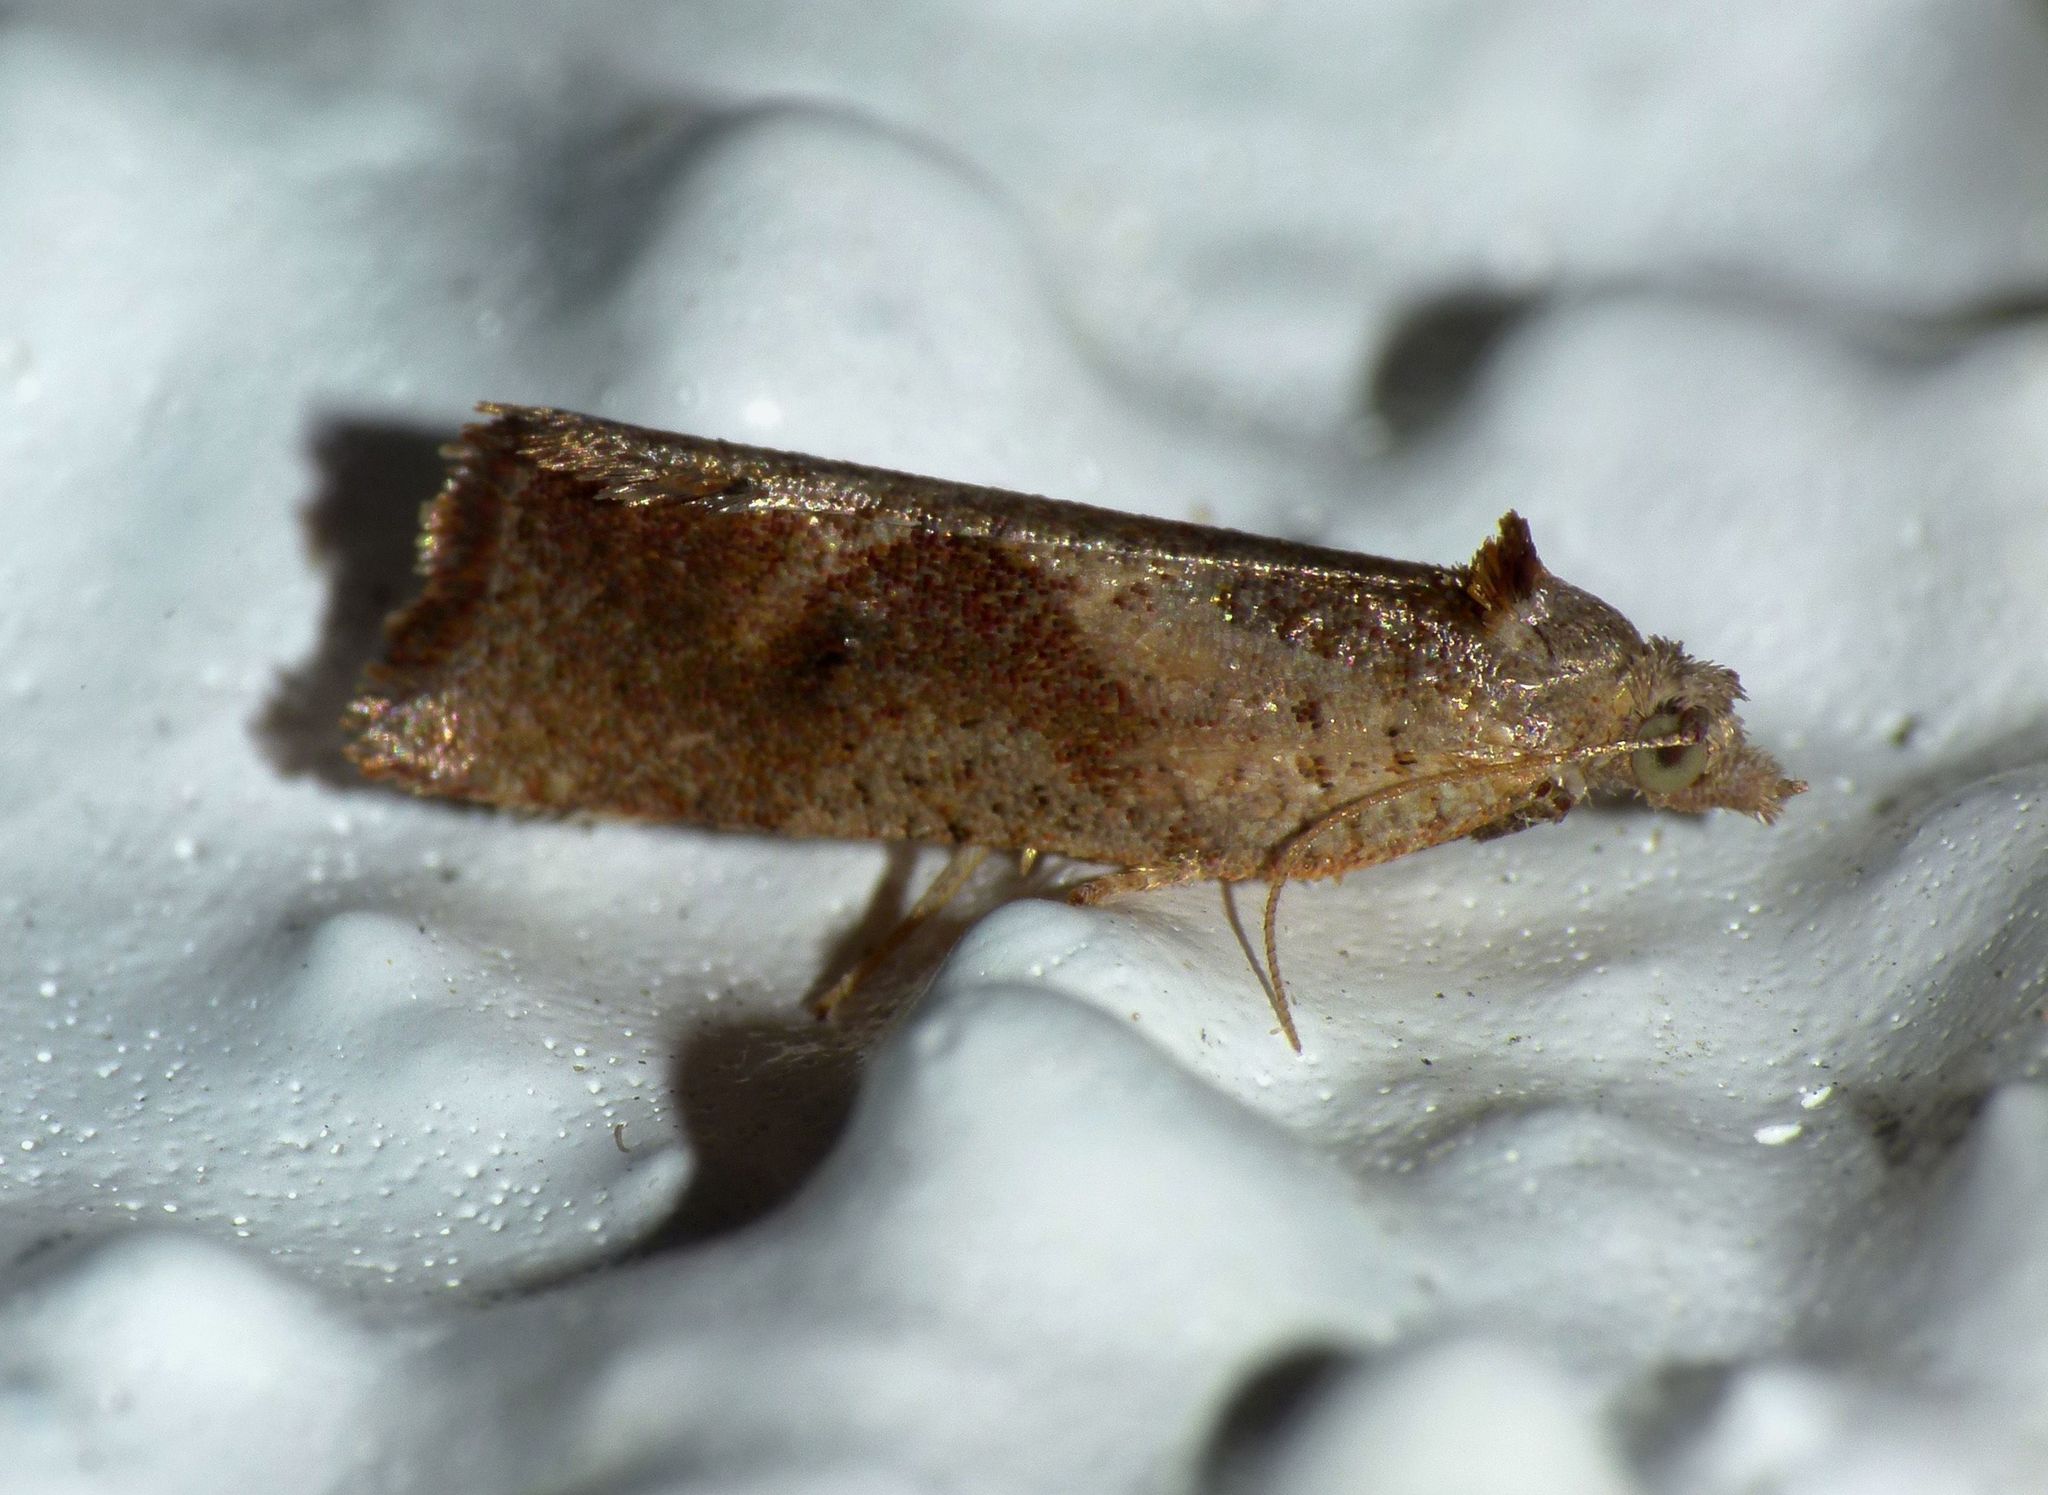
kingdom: Animalia
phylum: Arthropoda
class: Insecta
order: Lepidoptera
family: Tortricidae
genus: Pyrgotis
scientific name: Pyrgotis plagiatana
